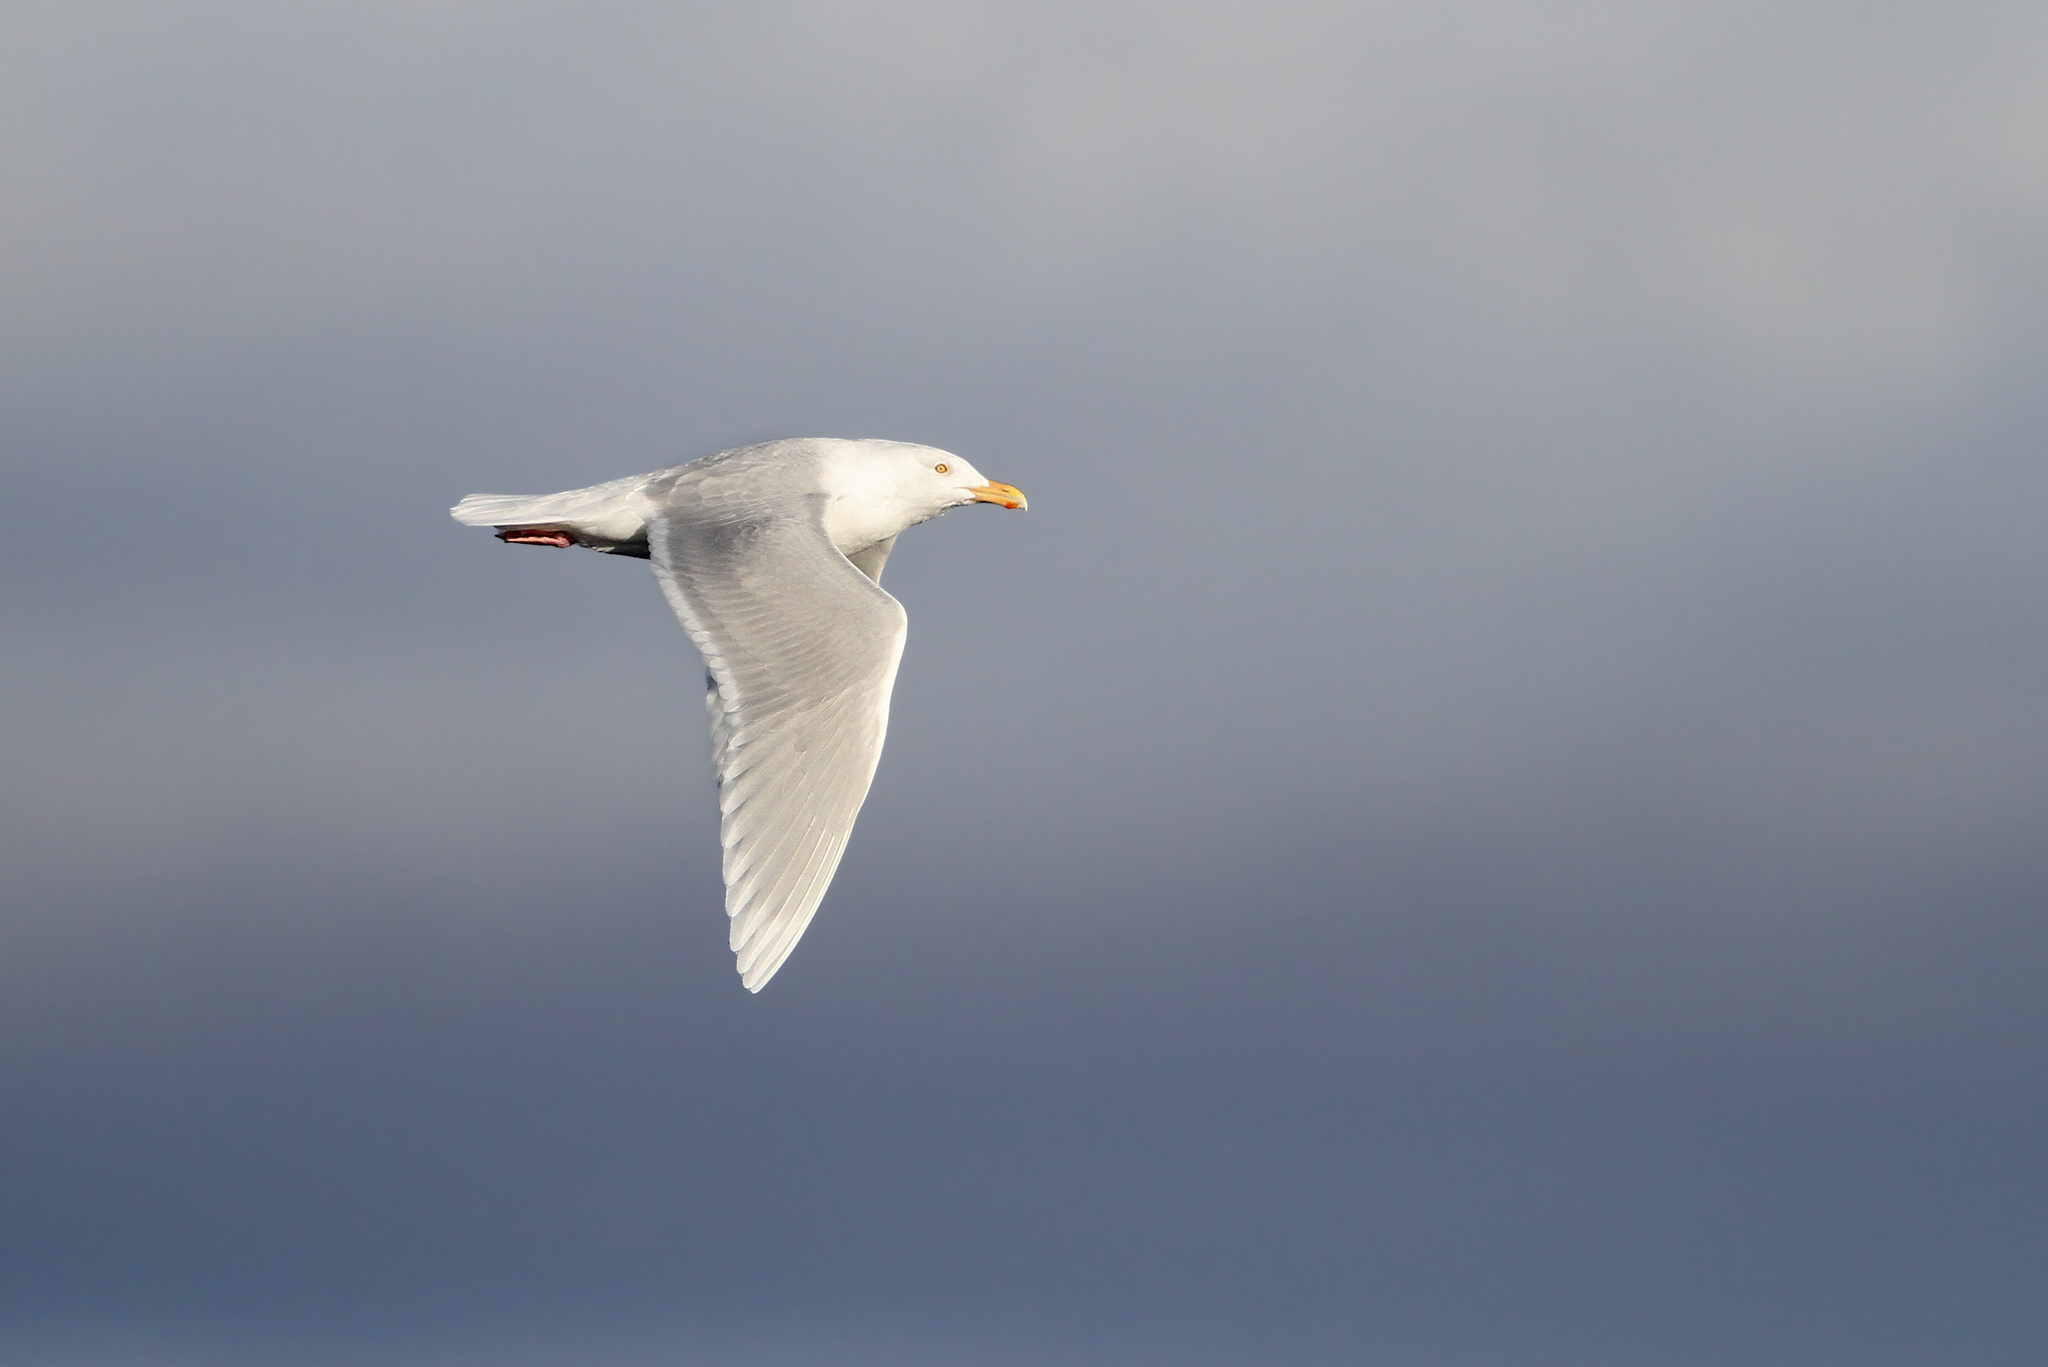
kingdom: Animalia
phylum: Chordata
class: Aves
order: Charadriiformes
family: Laridae
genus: Larus
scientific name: Larus hyperboreus
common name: Glaucous gull
